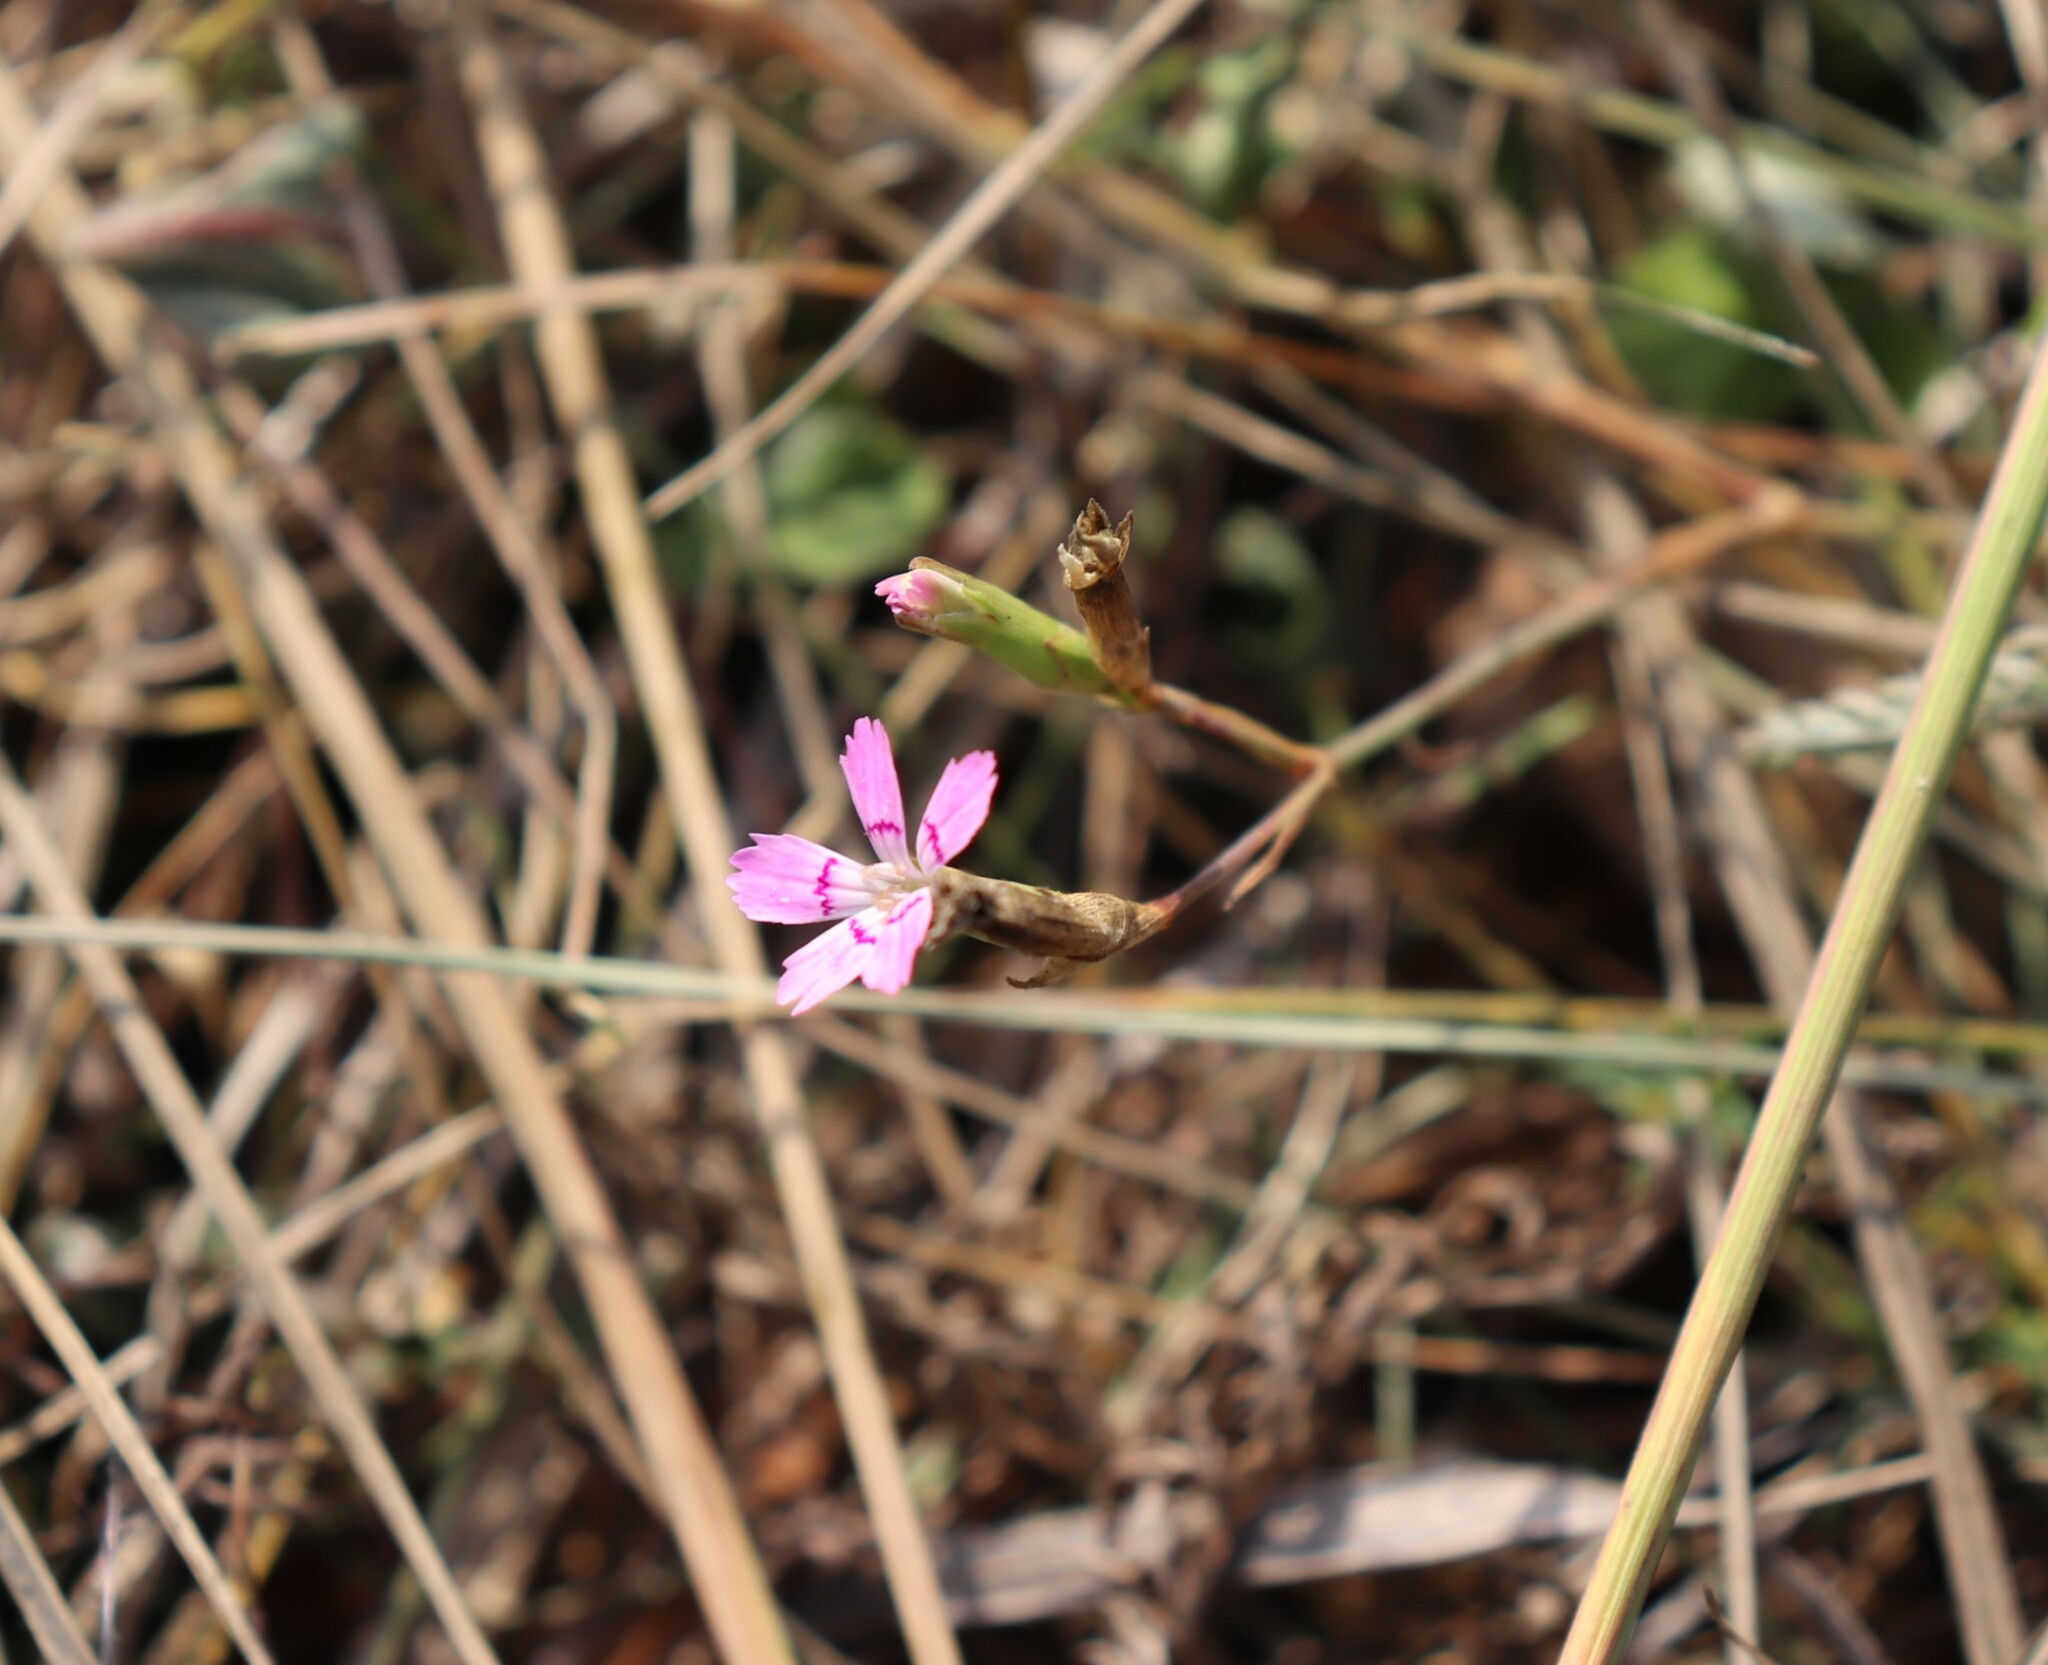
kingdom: Plantae
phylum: Tracheophyta
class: Magnoliopsida
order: Caryophyllales
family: Caryophyllaceae
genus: Dianthus
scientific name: Dianthus deltoides
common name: Maiden pink
